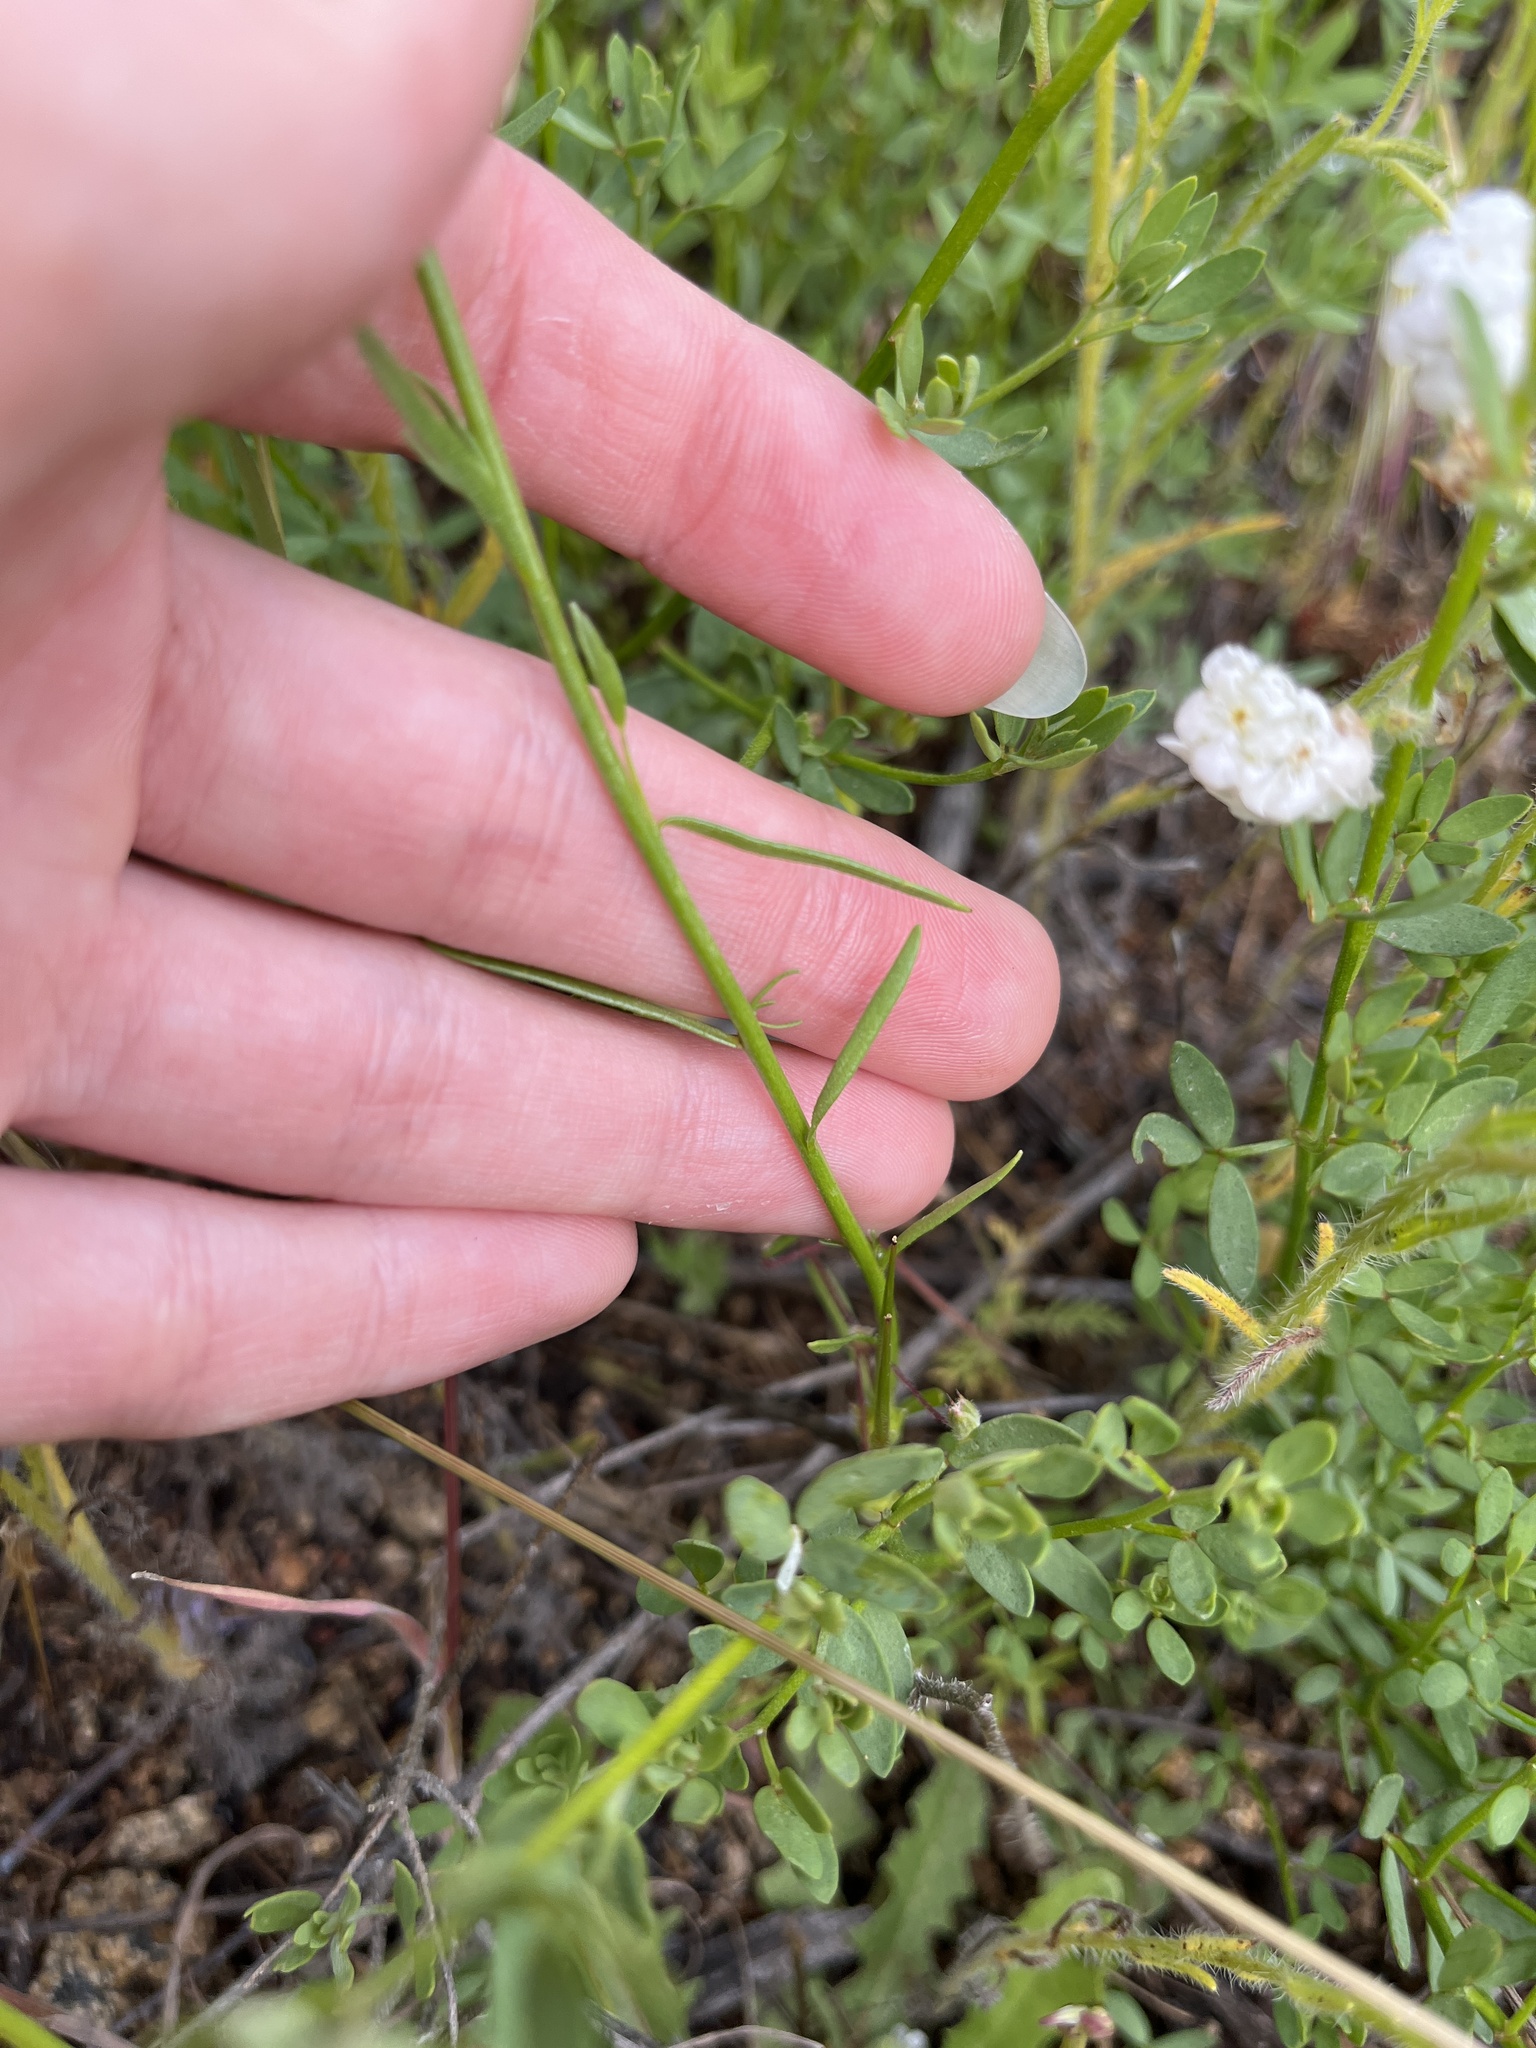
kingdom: Plantae
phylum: Tracheophyta
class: Magnoliopsida
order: Lamiales
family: Plantaginaceae
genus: Nuttallanthus
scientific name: Nuttallanthus texanus
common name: Texas toadflax
